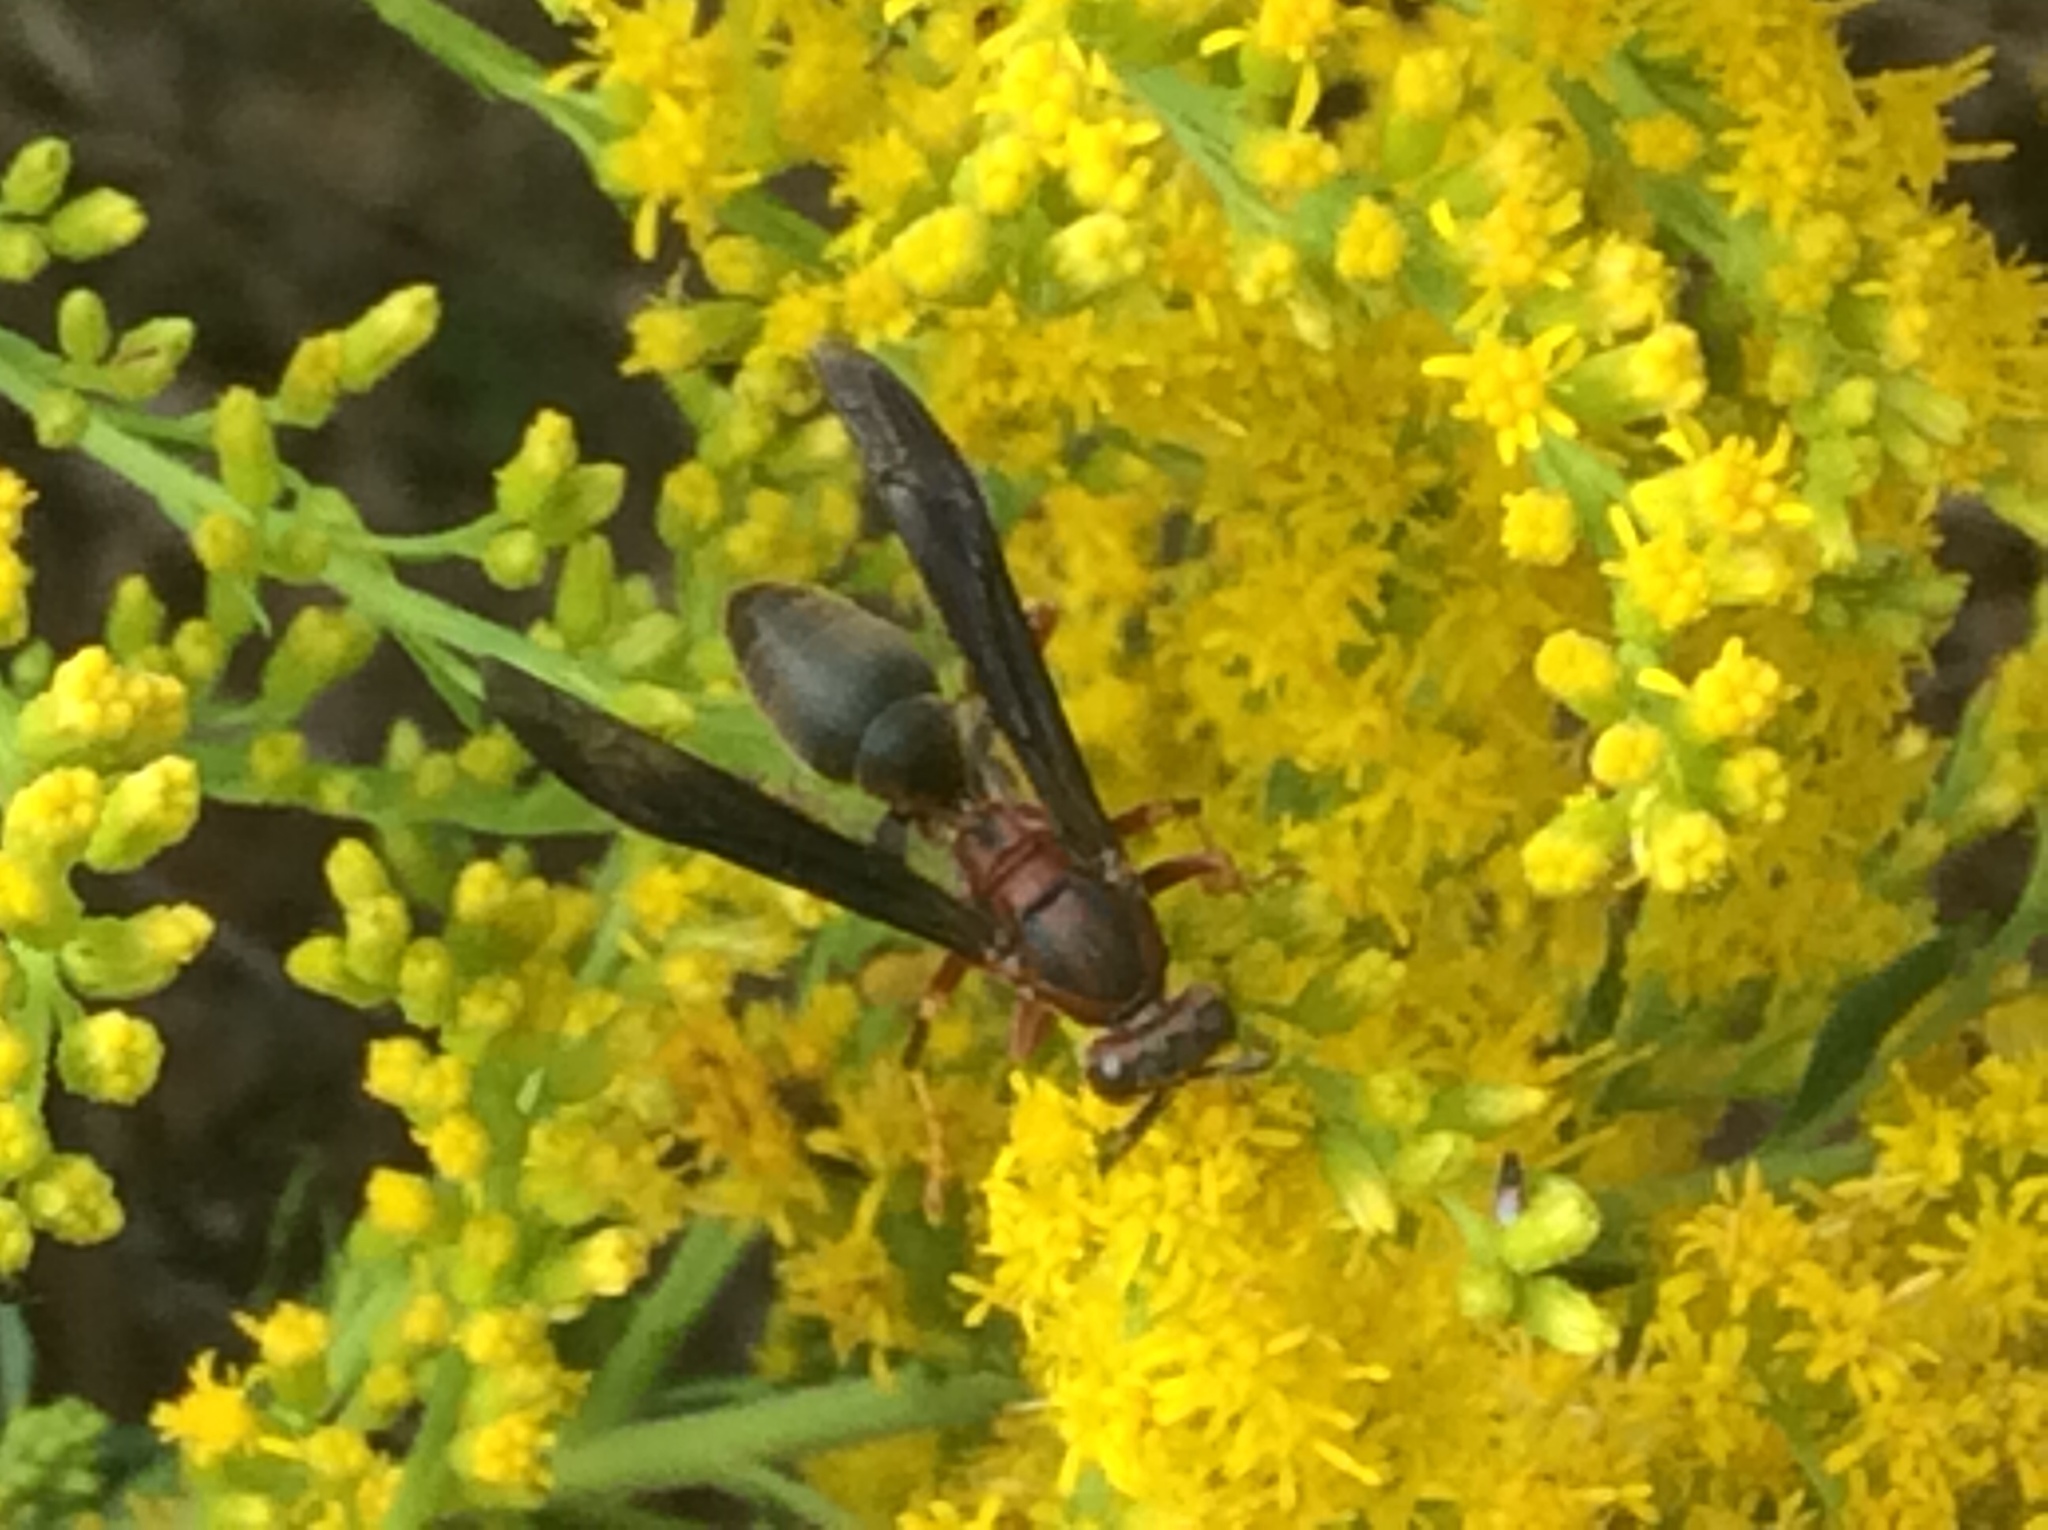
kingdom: Animalia
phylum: Arthropoda
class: Insecta
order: Hymenoptera
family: Eumenidae
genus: Polistes
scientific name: Polistes metricus
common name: Metric paper wasp
